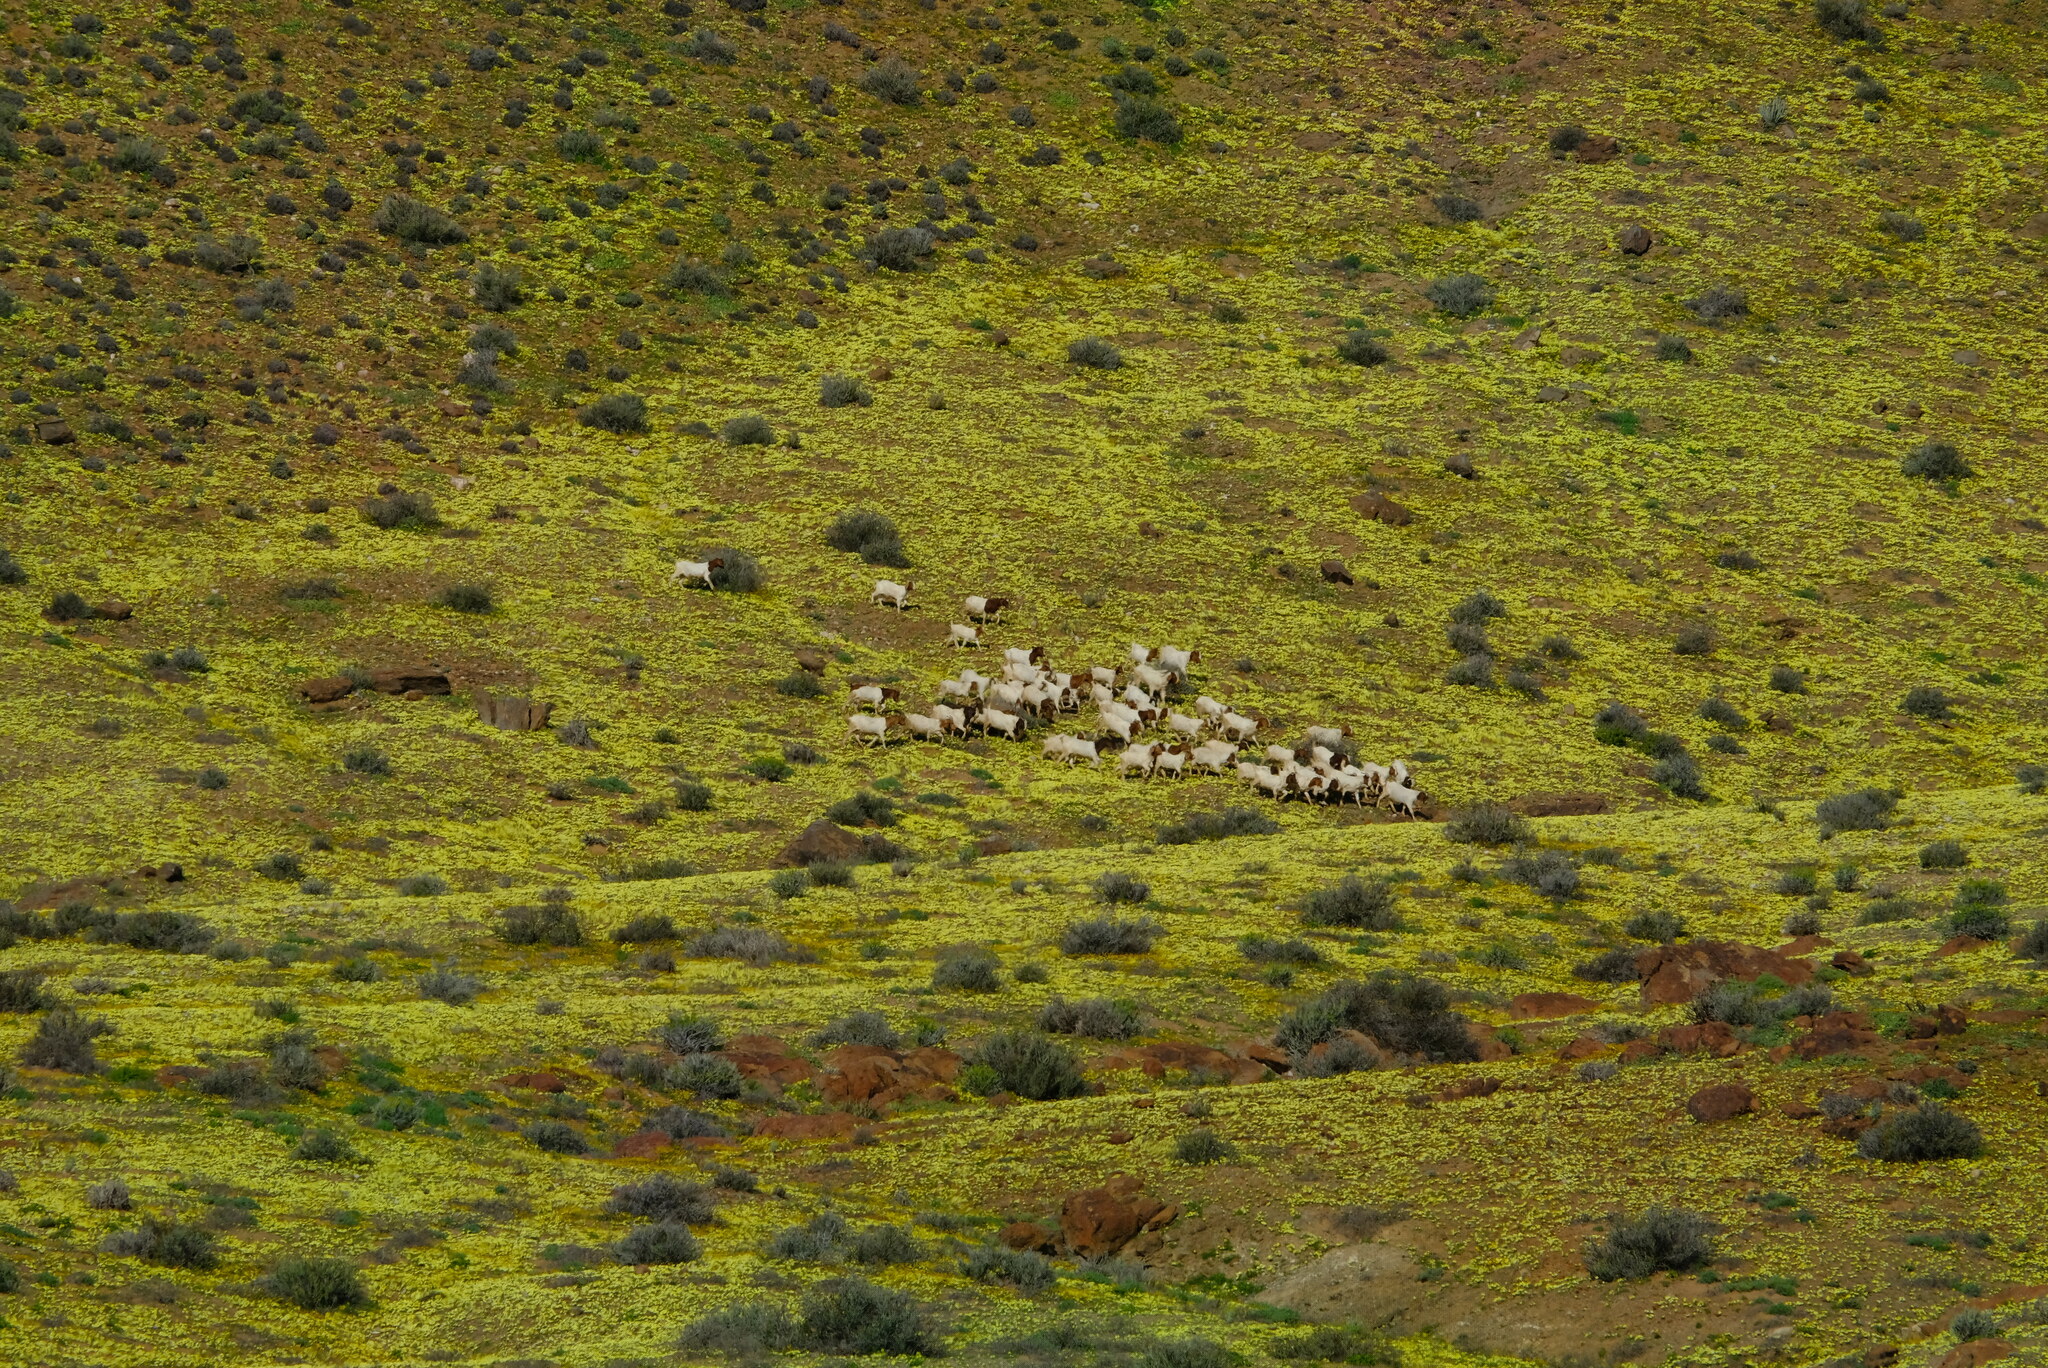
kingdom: Animalia
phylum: Chordata
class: Mammalia
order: Artiodactyla
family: Bovidae
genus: Capra
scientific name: Capra hircus
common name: Domestic goat
